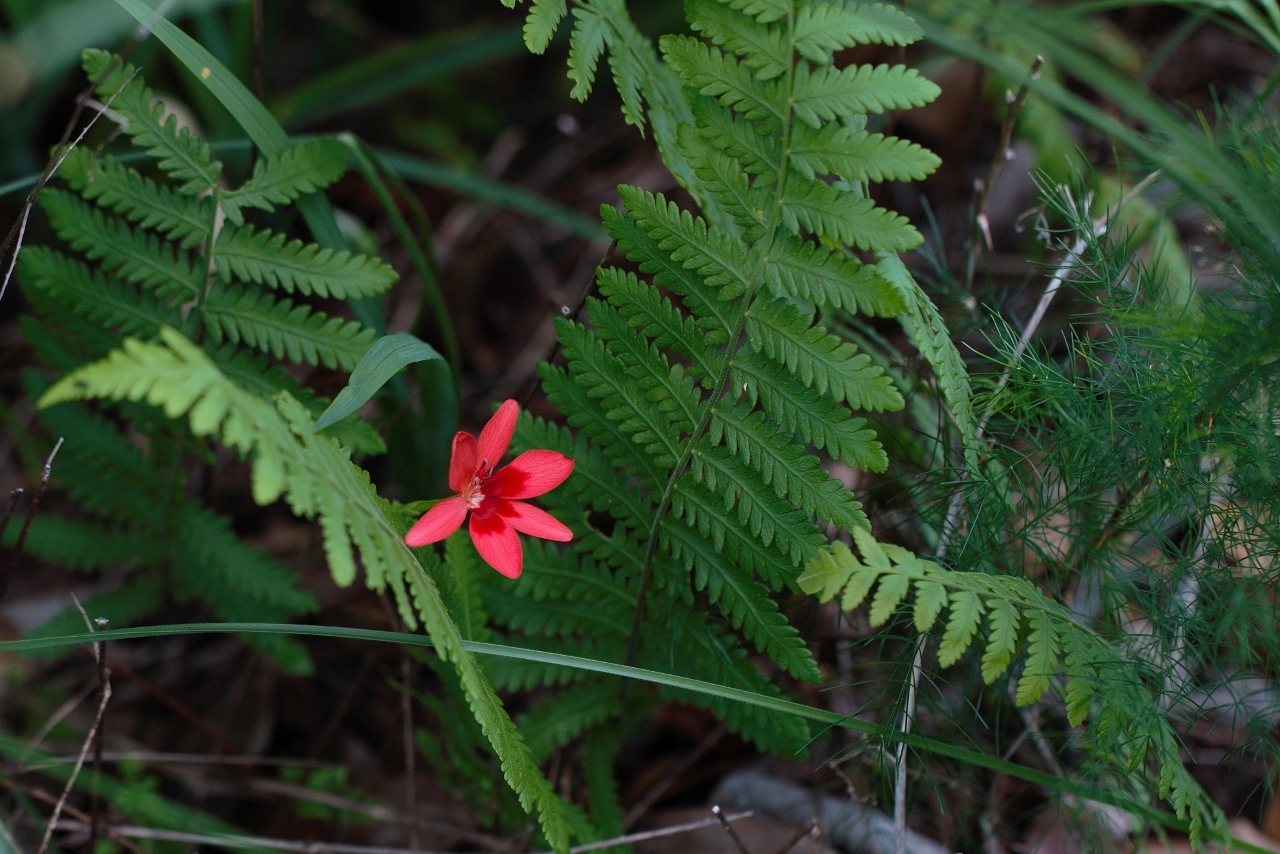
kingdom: Plantae
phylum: Tracheophyta
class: Liliopsida
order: Asparagales
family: Iridaceae
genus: Freesia
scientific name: Freesia grandiflora
